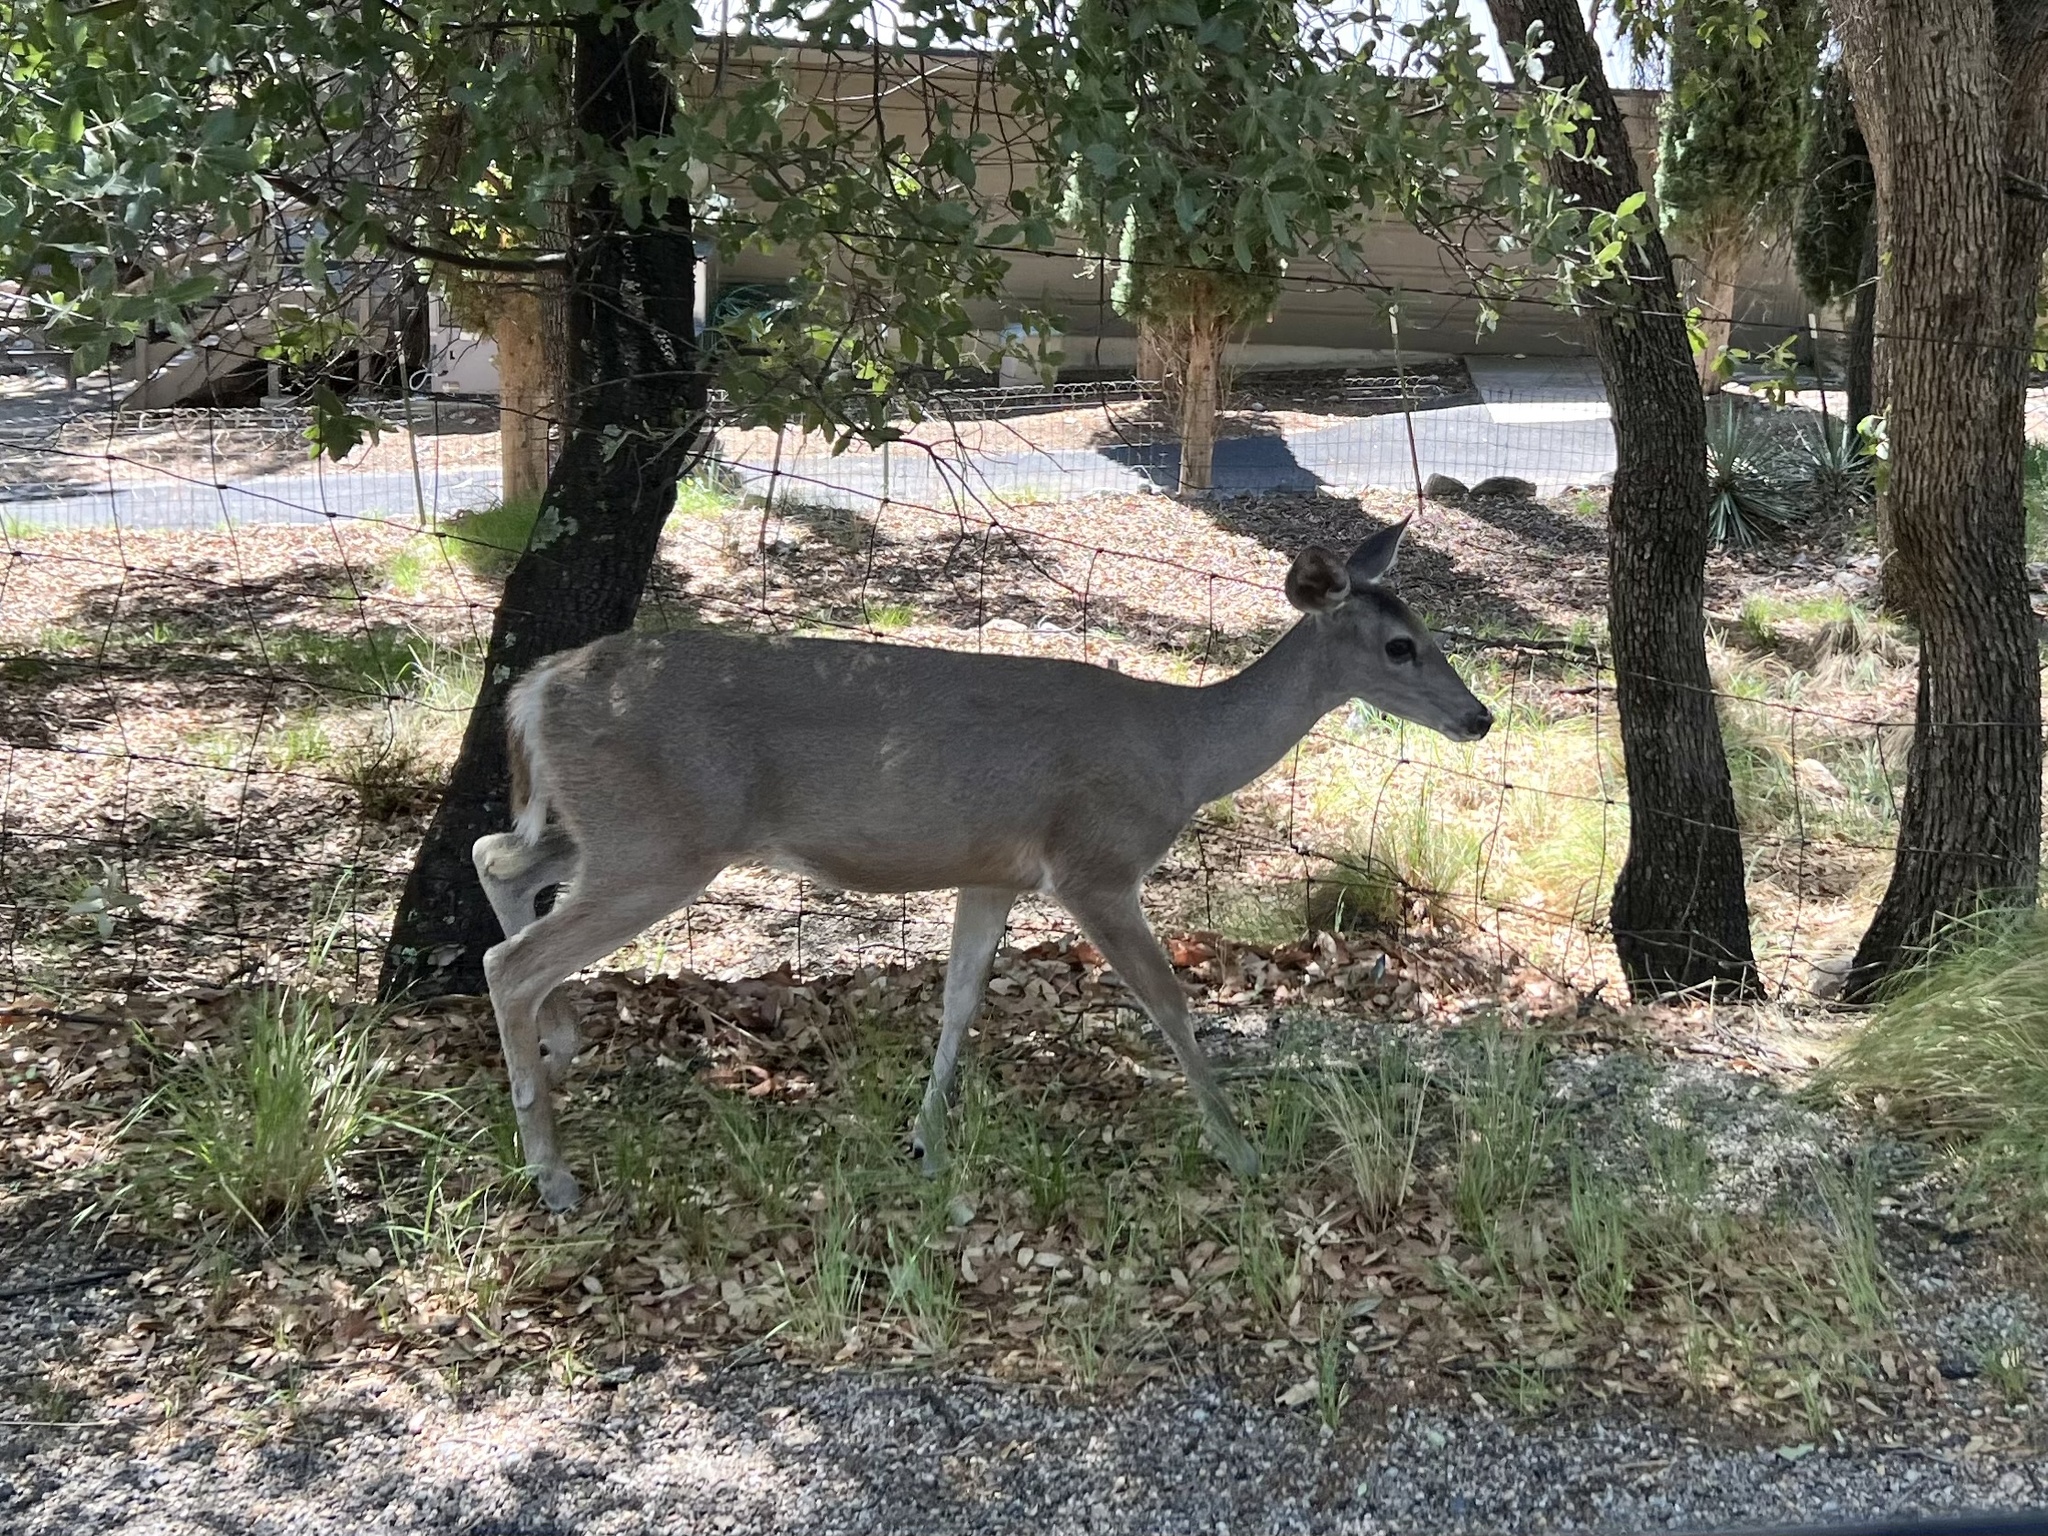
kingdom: Animalia
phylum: Chordata
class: Mammalia
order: Artiodactyla
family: Cervidae
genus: Odocoileus
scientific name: Odocoileus virginianus
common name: White-tailed deer
